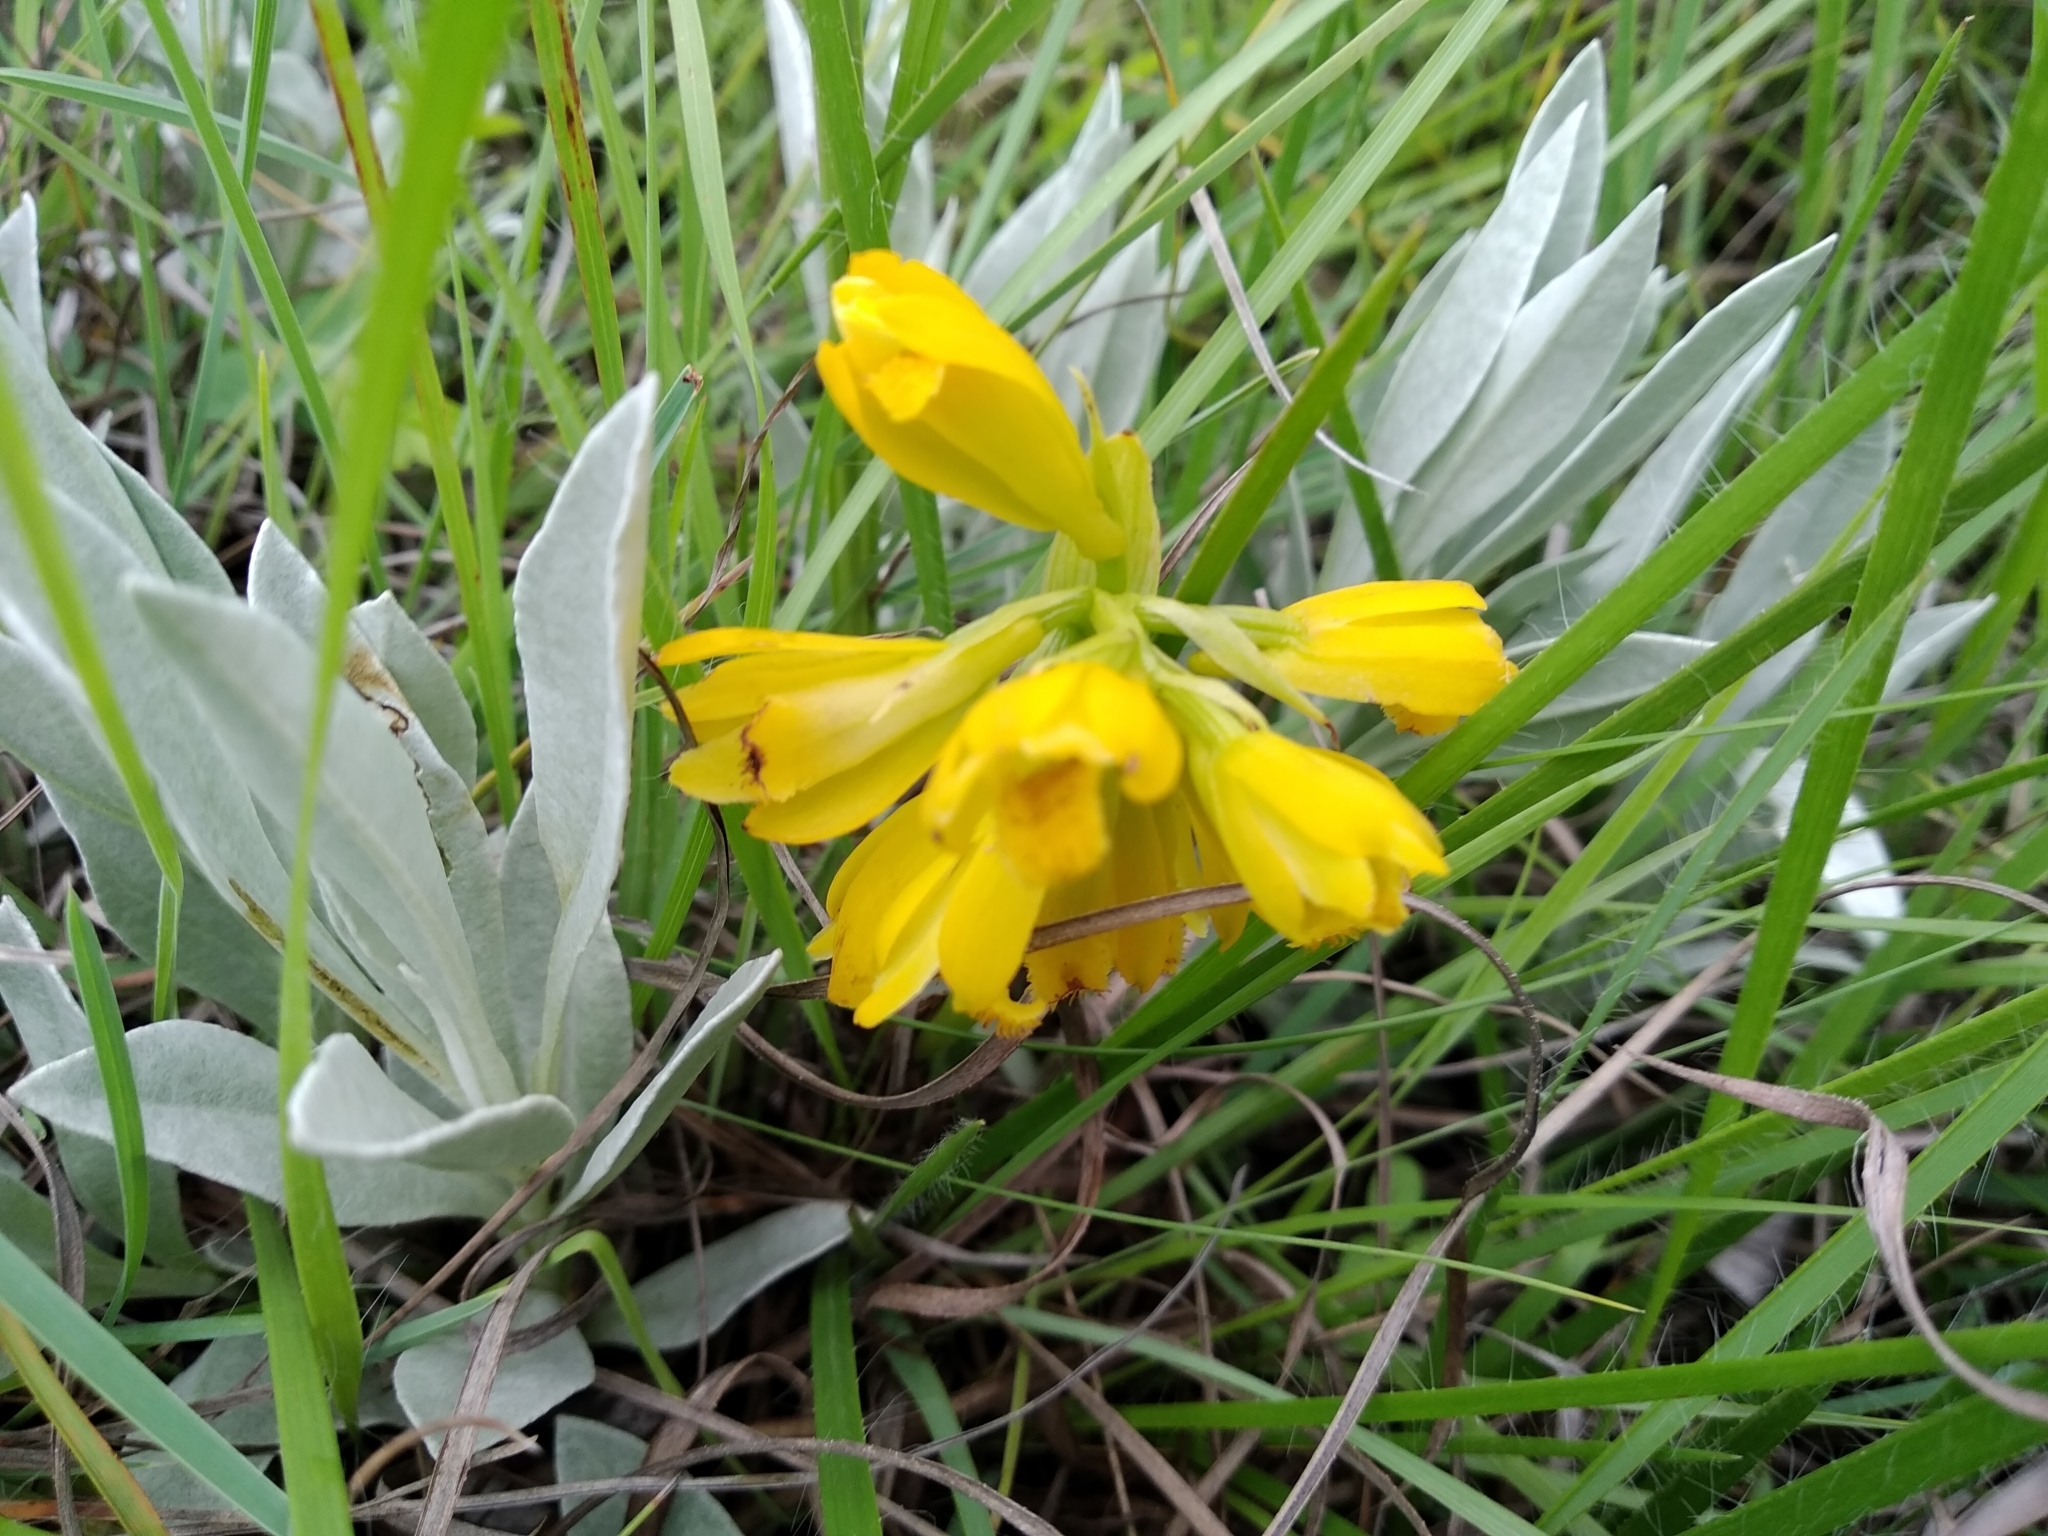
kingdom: Plantae
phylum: Tracheophyta
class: Liliopsida
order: Asparagales
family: Orchidaceae
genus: Eulophia
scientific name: Eulophia leontoglossa
